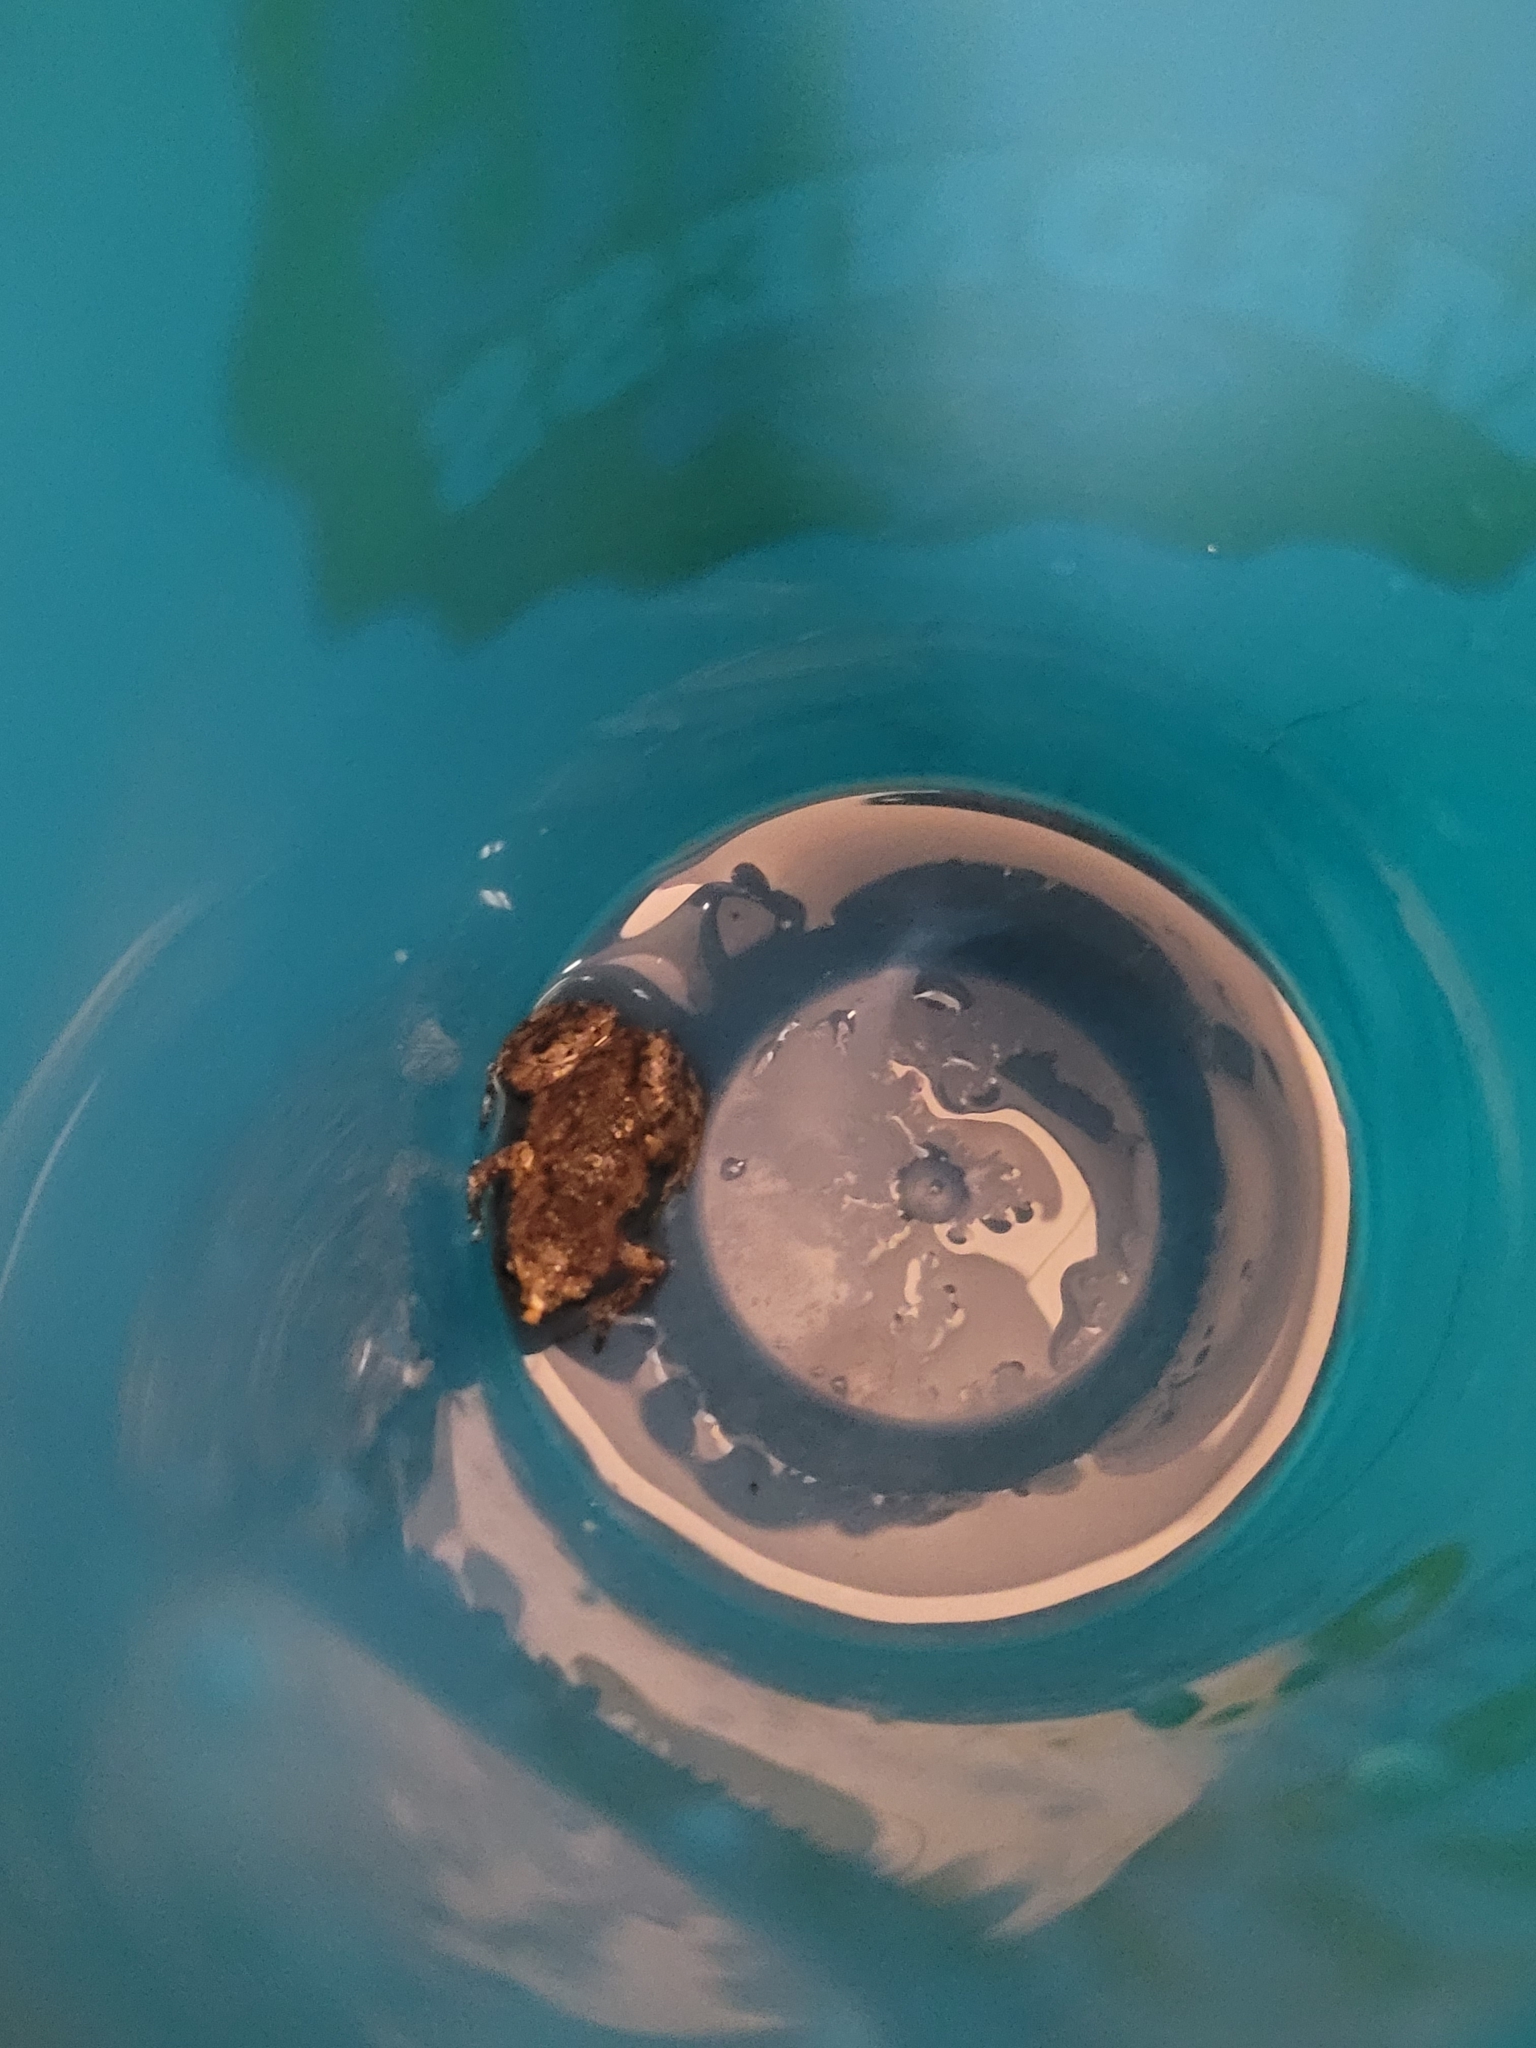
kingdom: Animalia
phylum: Chordata
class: Amphibia
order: Anura
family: Microhylidae
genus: Gastrophryne
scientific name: Gastrophryne carolinensis
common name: Eastern narrowmouth toad
